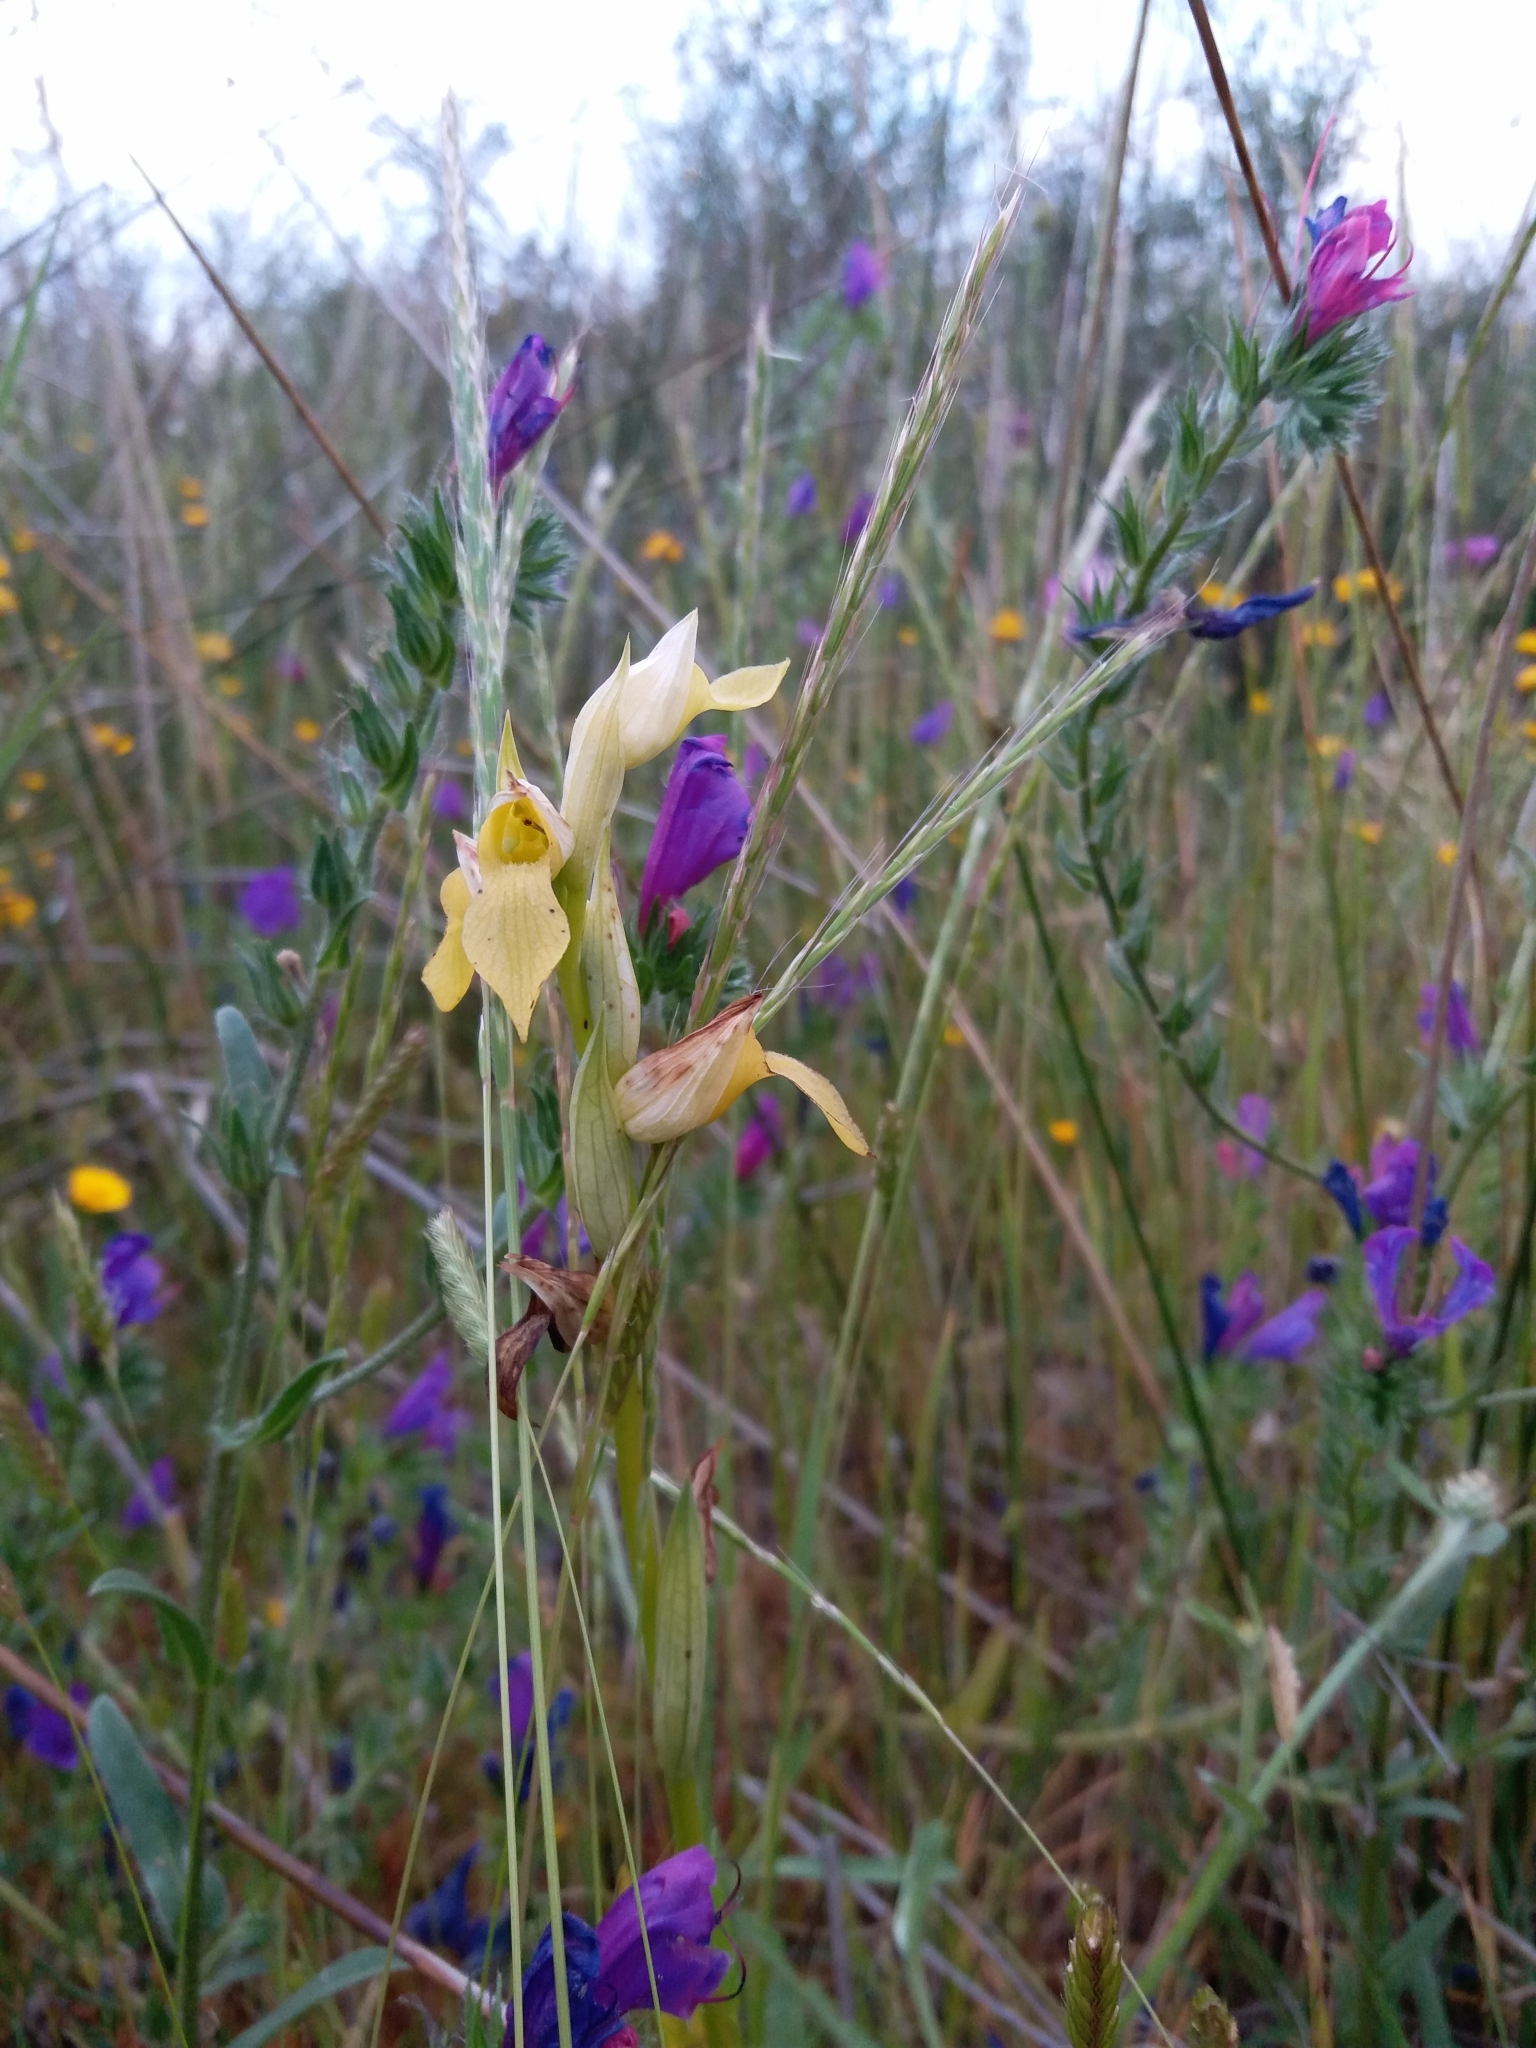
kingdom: Plantae
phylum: Tracheophyta
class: Liliopsida
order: Asparagales
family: Orchidaceae
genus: Serapias
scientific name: Serapias lingua
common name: Tongue-orchid
